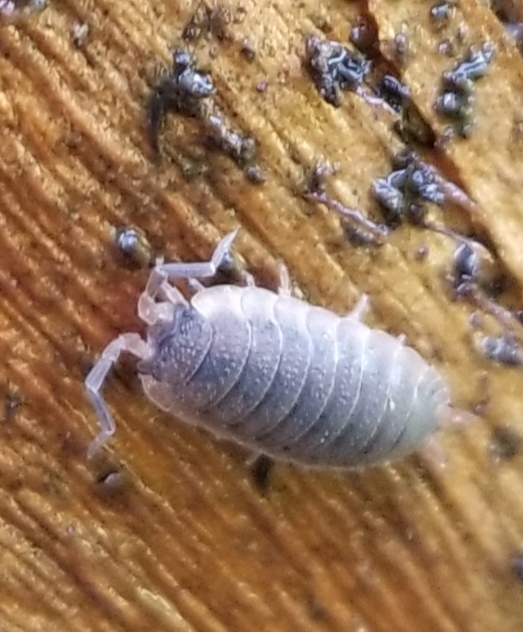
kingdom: Animalia
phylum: Arthropoda
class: Malacostraca
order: Isopoda
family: Porcellionidae
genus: Porcellio
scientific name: Porcellio scaber
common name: Common rough woodlouse
